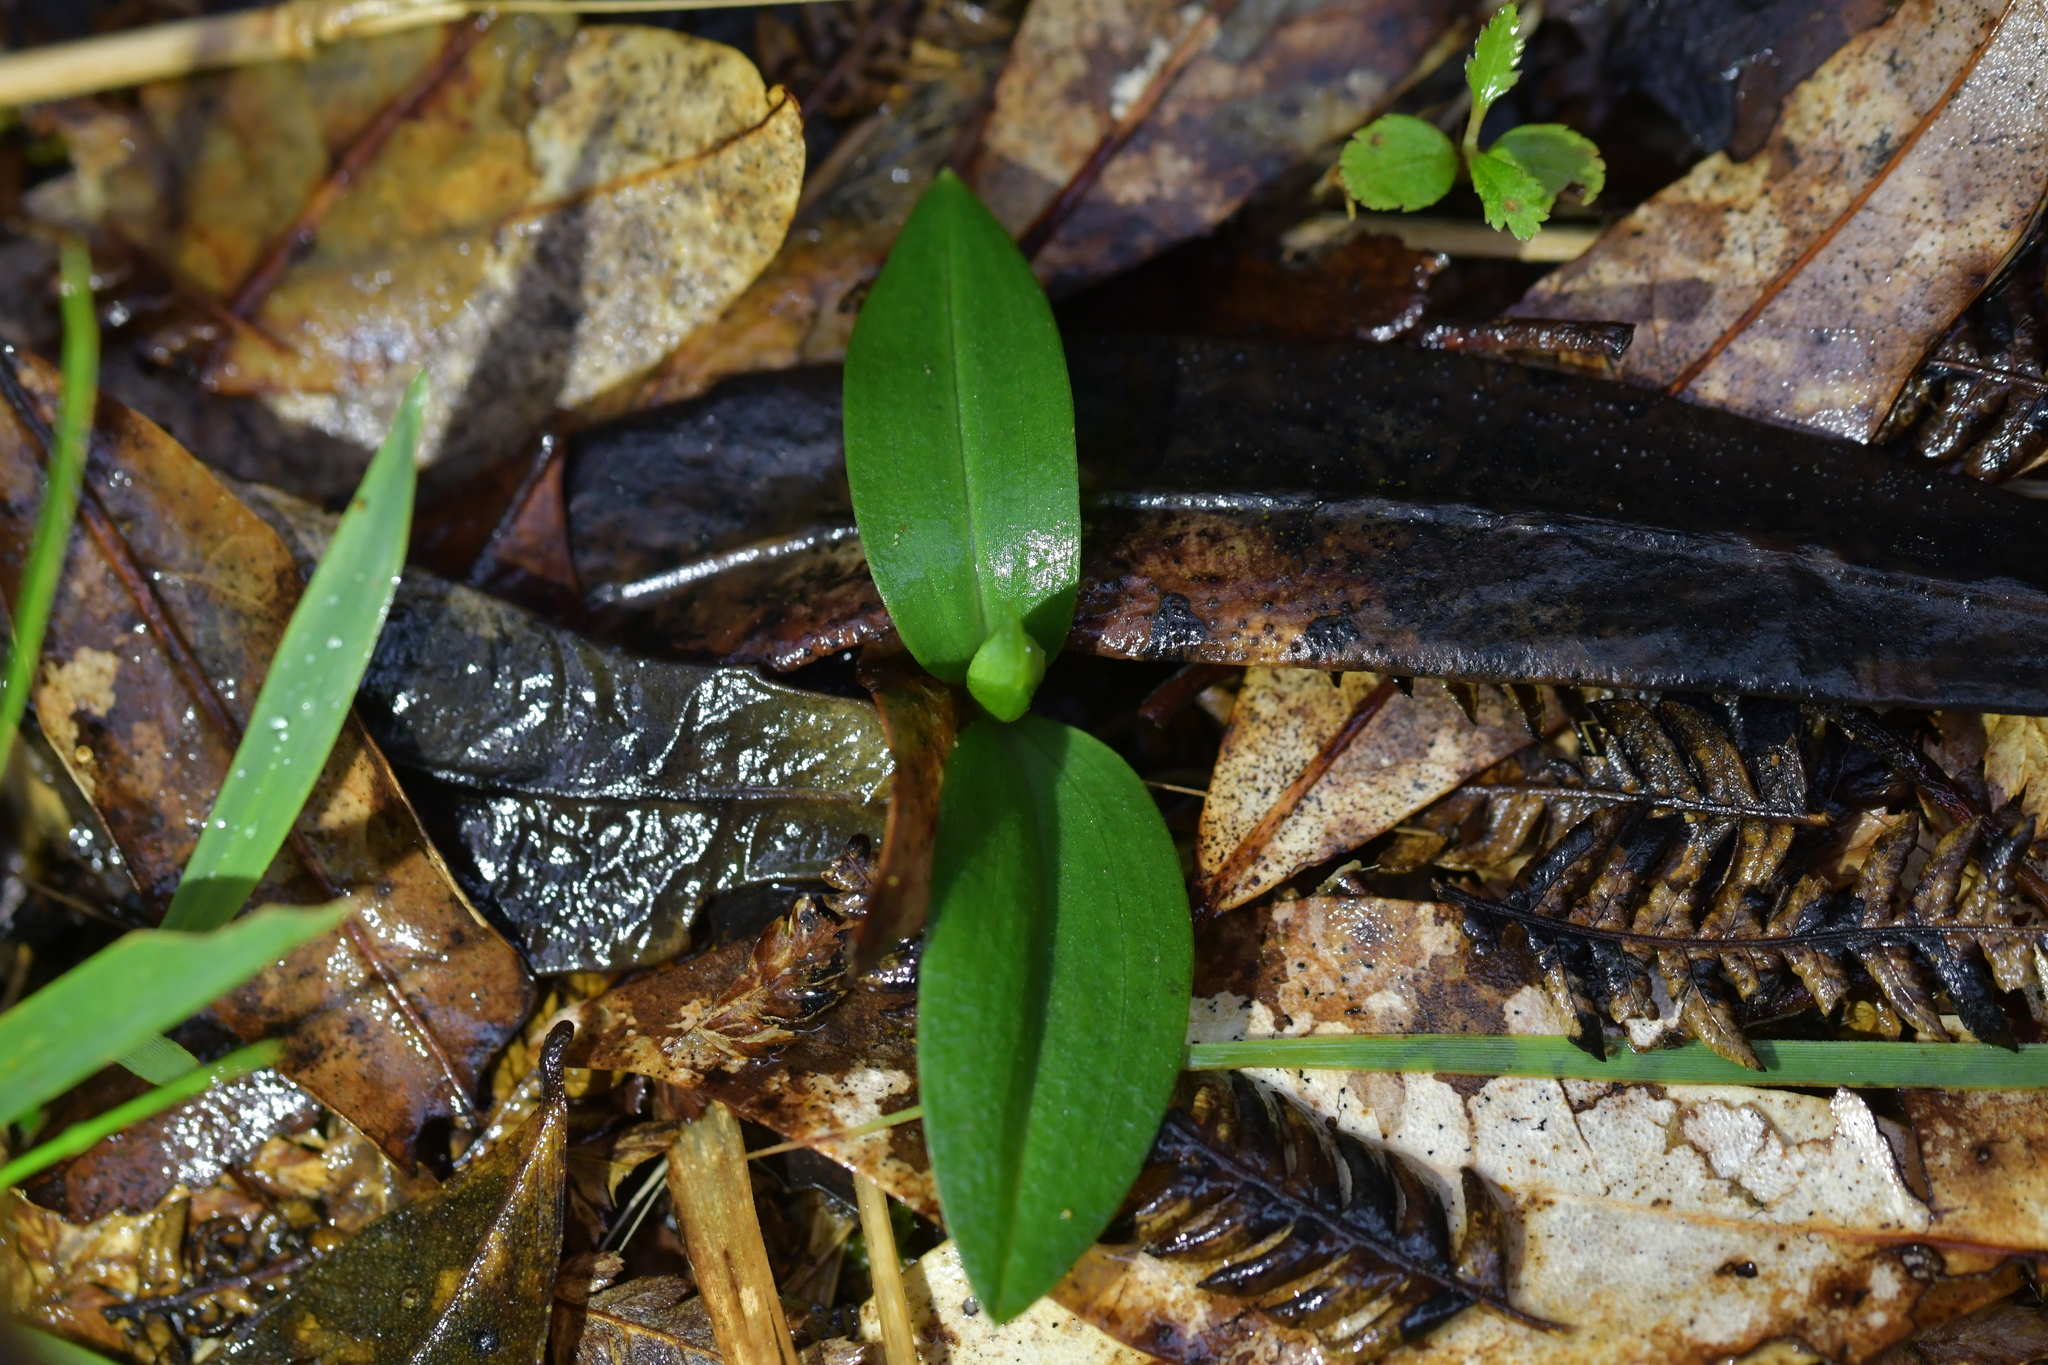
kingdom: Plantae
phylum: Tracheophyta
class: Liliopsida
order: Asparagales
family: Orchidaceae
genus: Chiloglottis
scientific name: Chiloglottis cornuta
